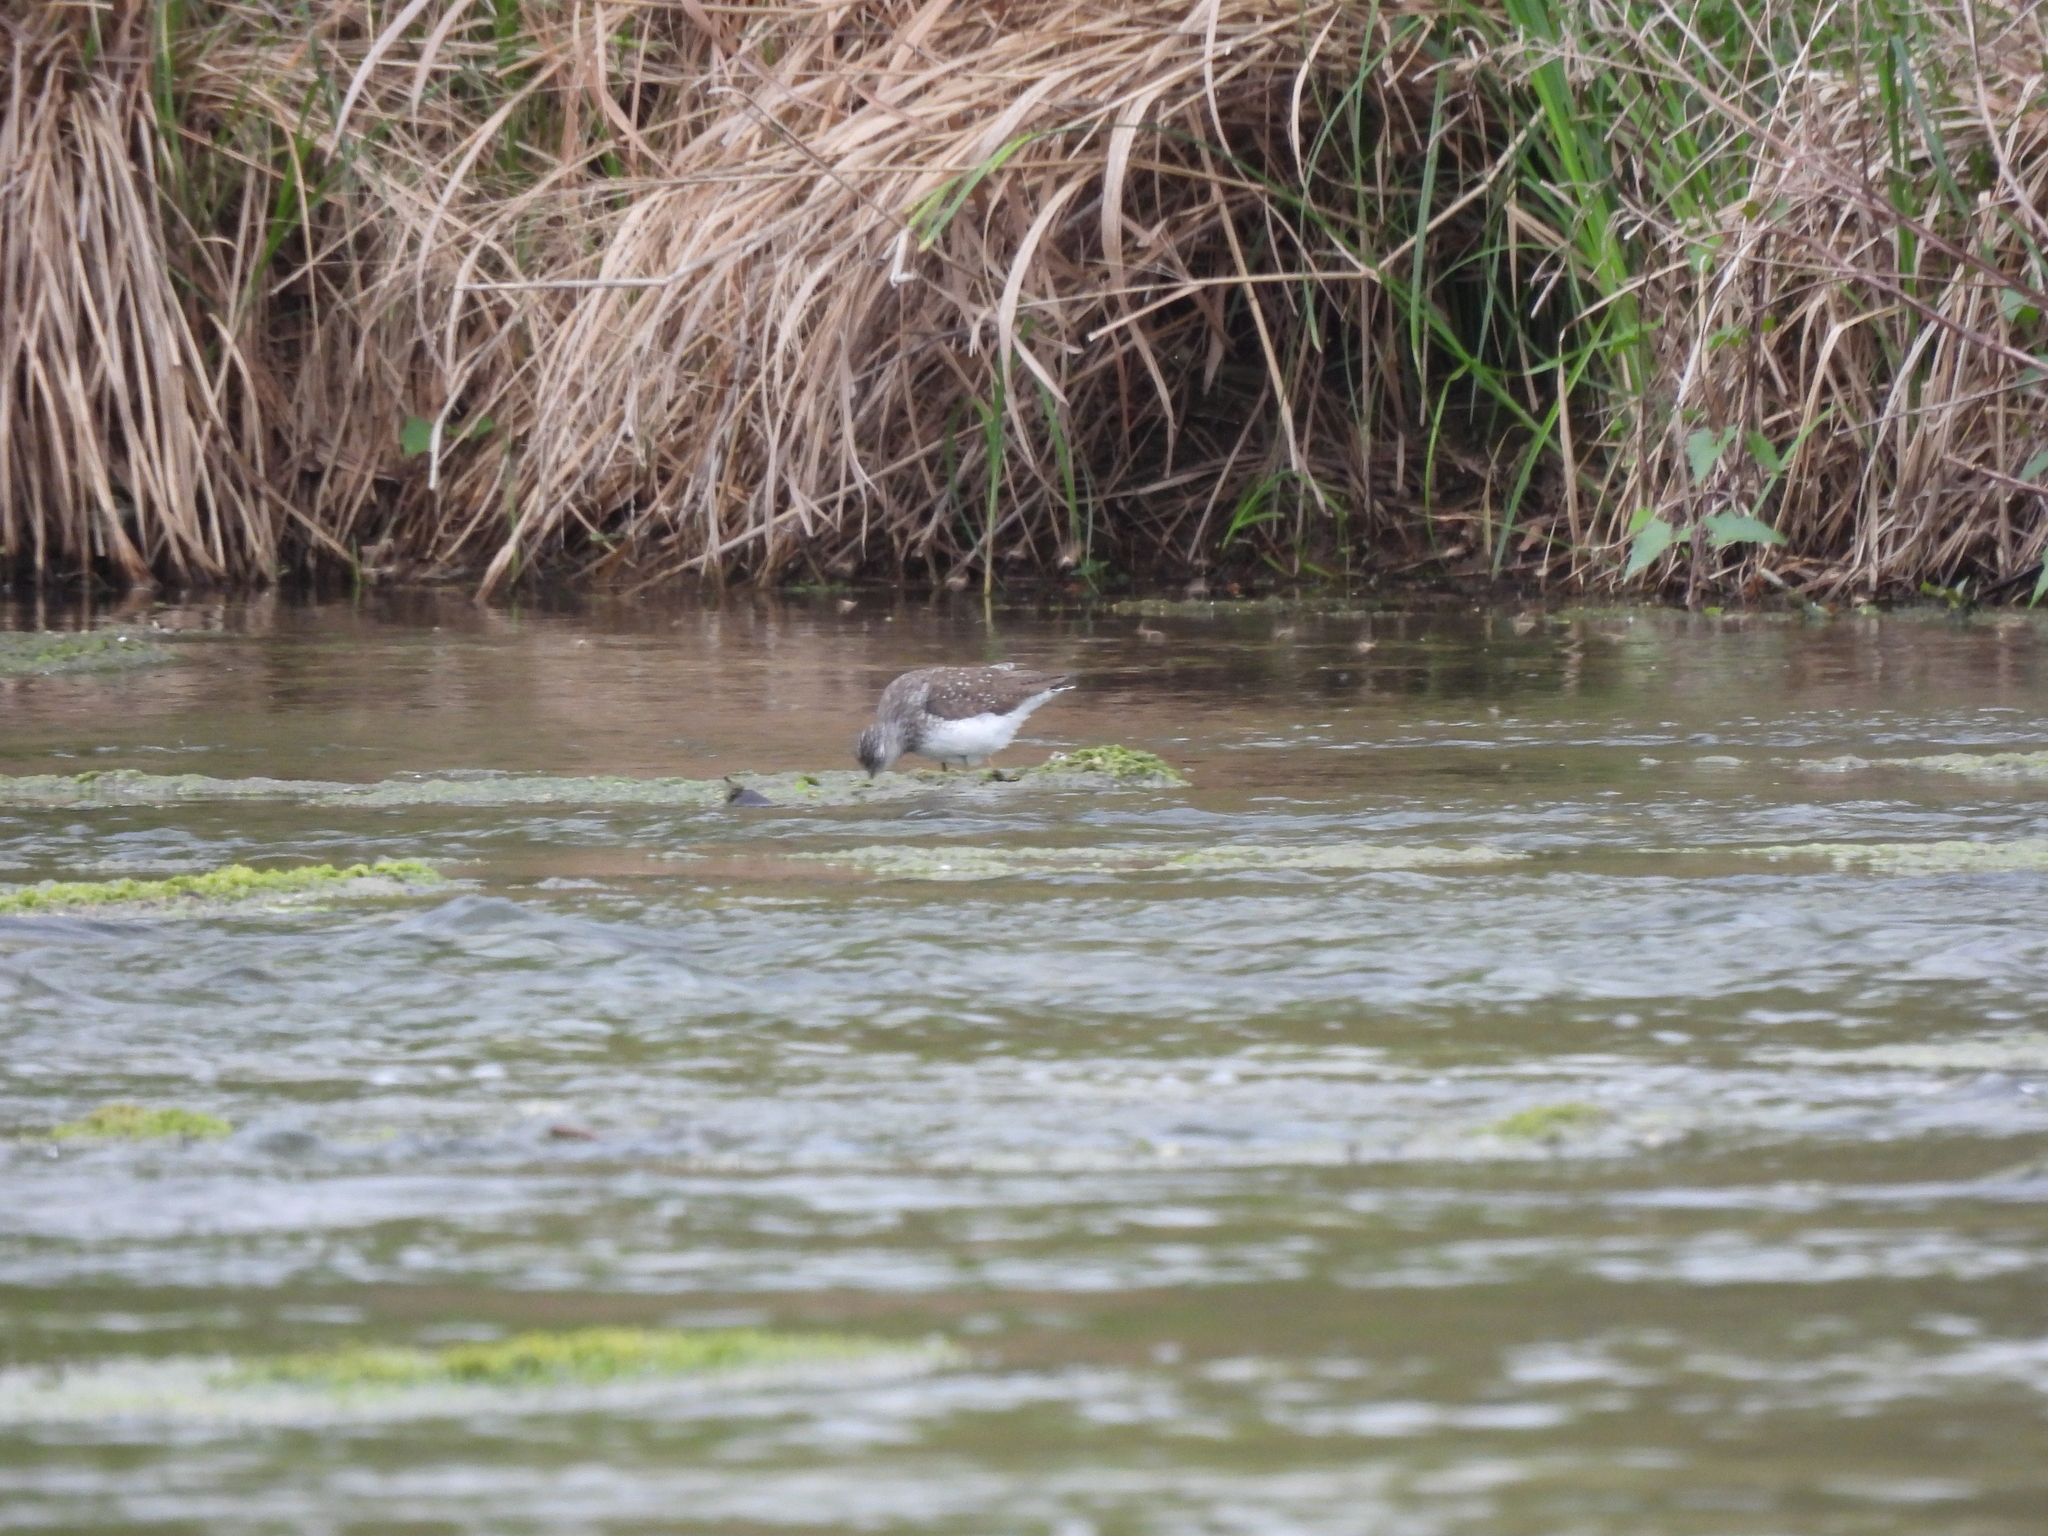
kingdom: Animalia
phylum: Chordata
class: Aves
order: Charadriiformes
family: Scolopacidae
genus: Tringa
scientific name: Tringa solitaria
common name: Solitary sandpiper
